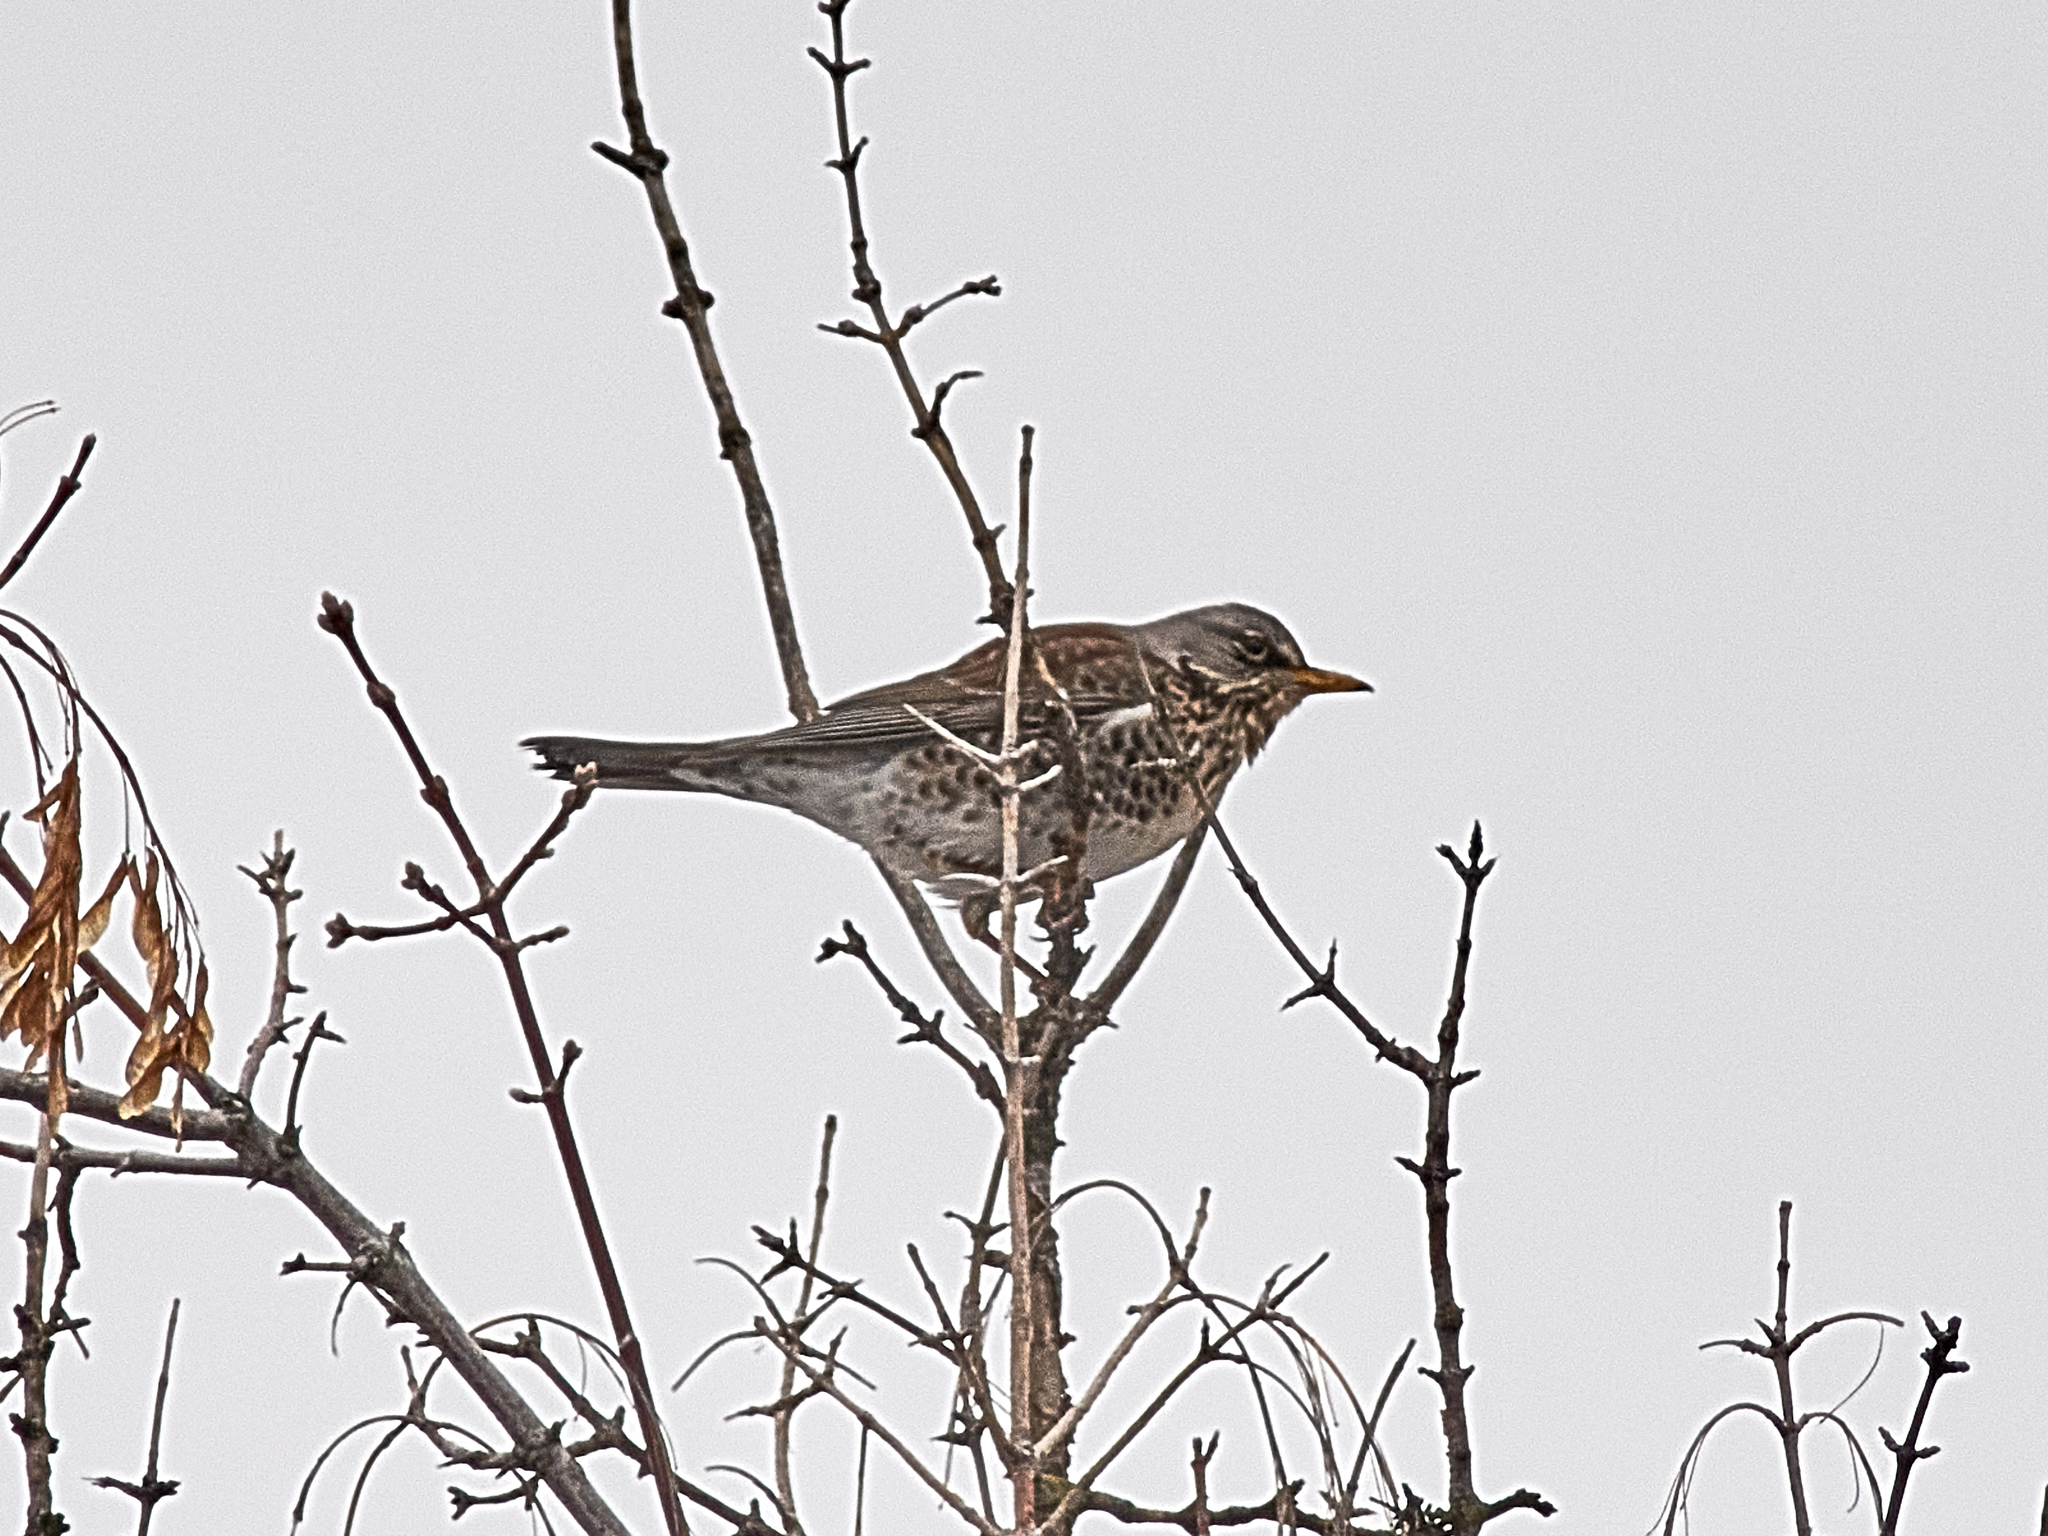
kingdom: Animalia
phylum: Chordata
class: Aves
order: Passeriformes
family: Turdidae
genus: Turdus
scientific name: Turdus pilaris
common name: Fieldfare
